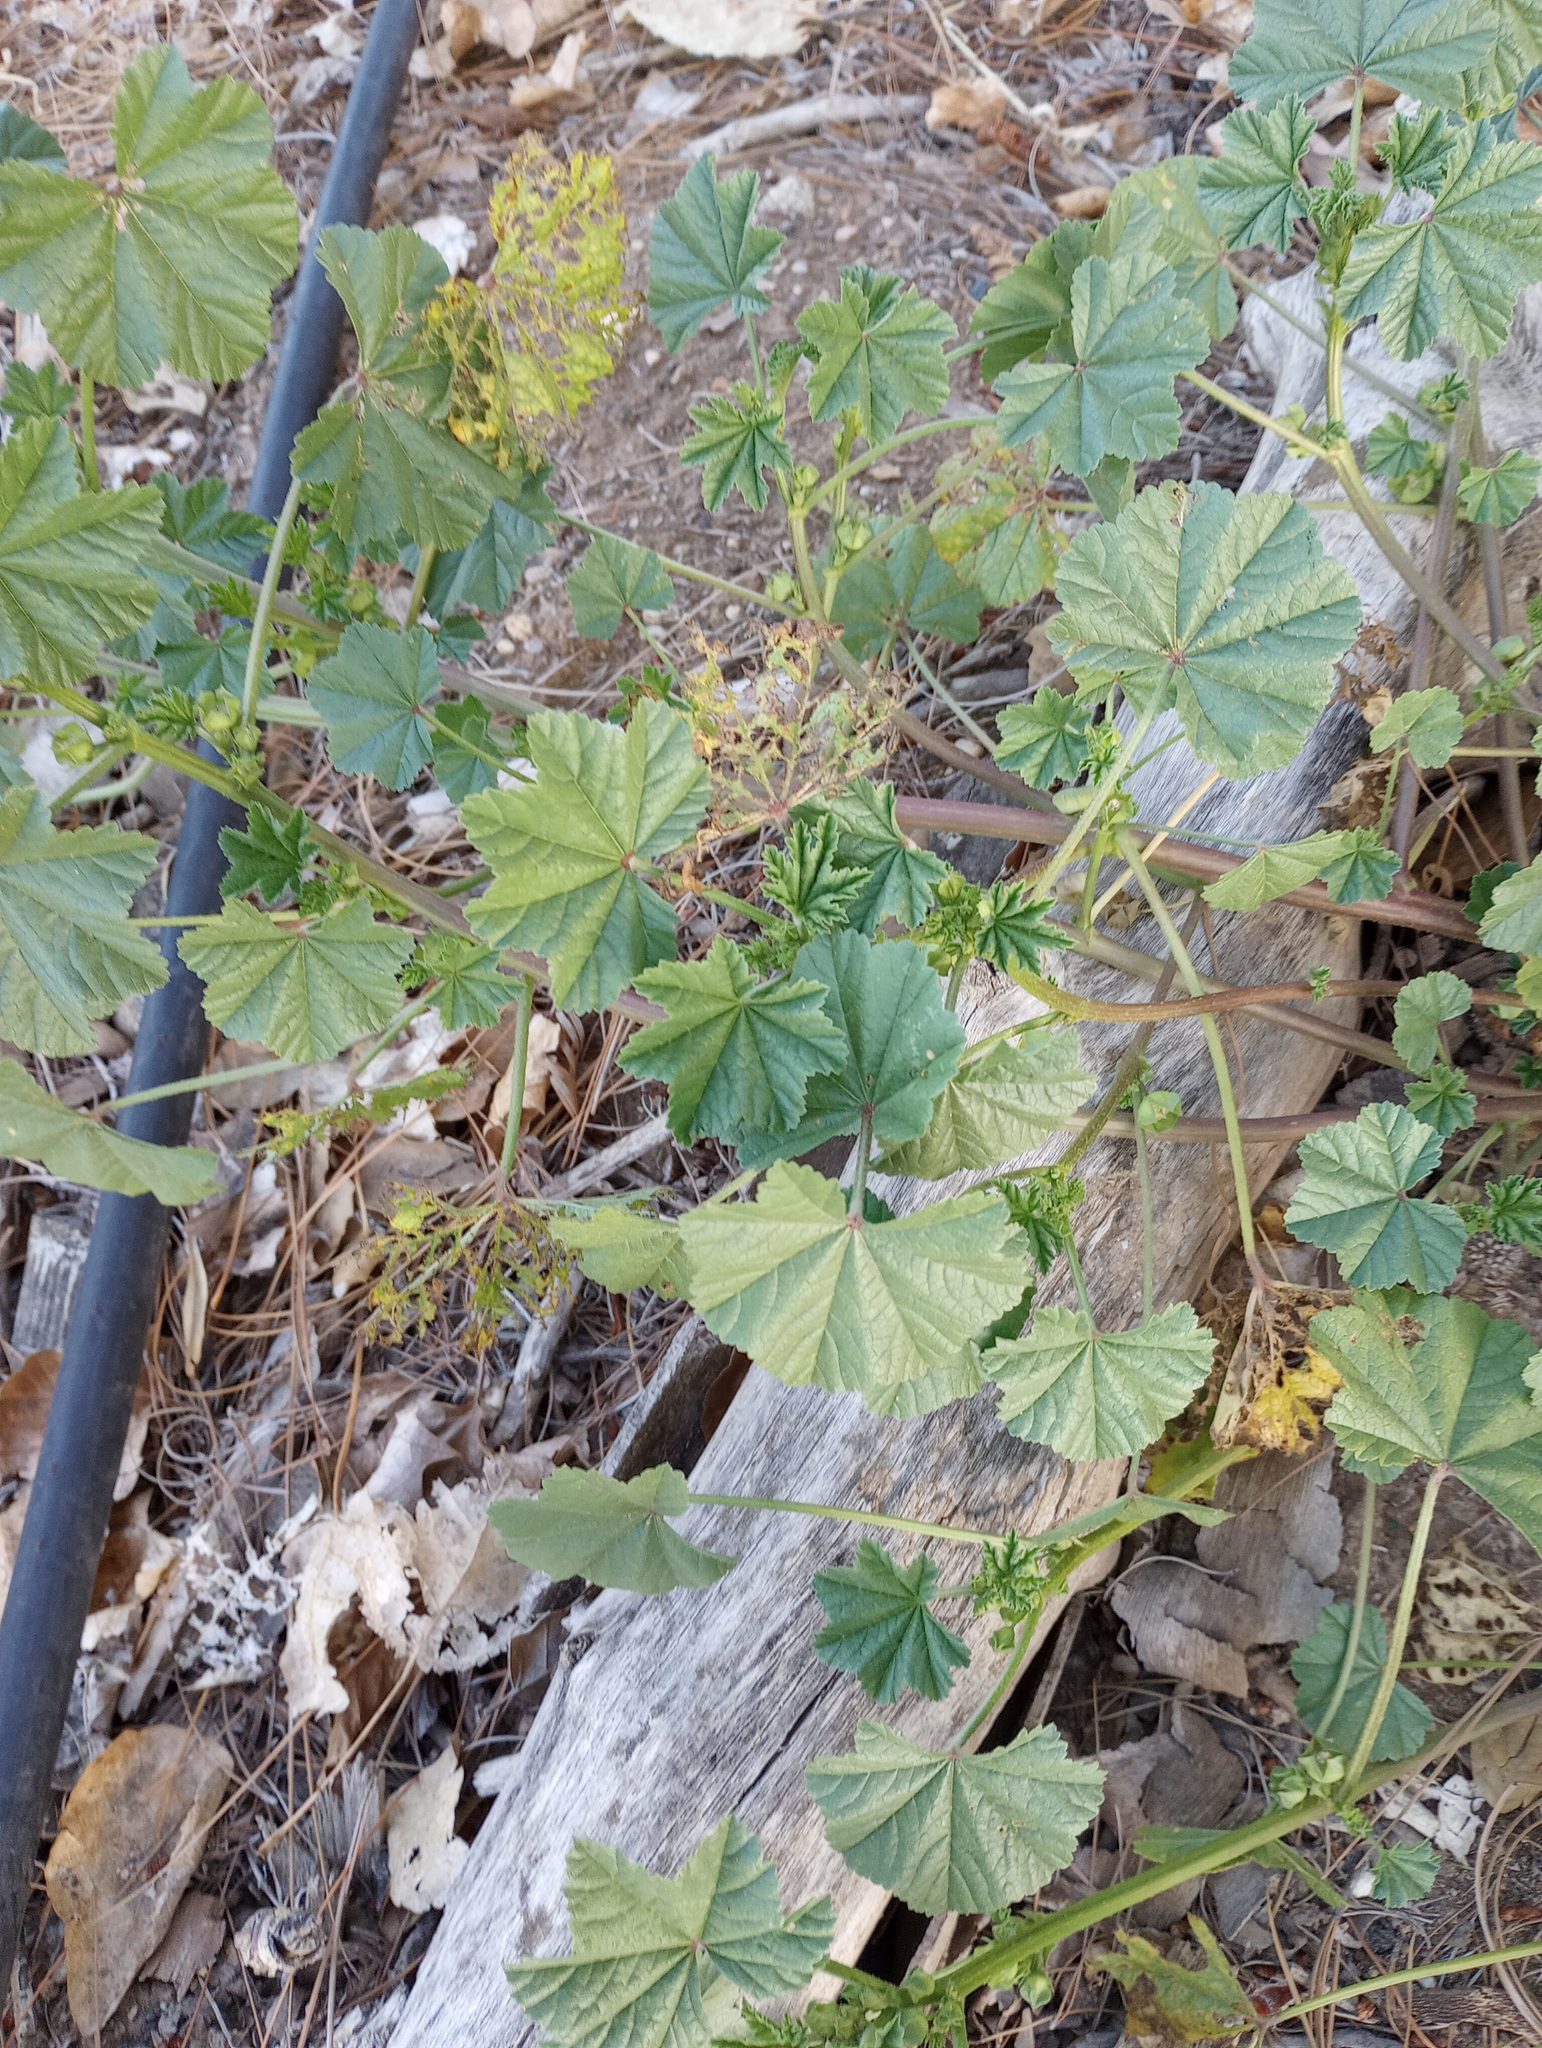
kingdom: Plantae
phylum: Tracheophyta
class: Magnoliopsida
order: Malvales
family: Malvaceae
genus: Malva
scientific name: Malva parviflora
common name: Least mallow
